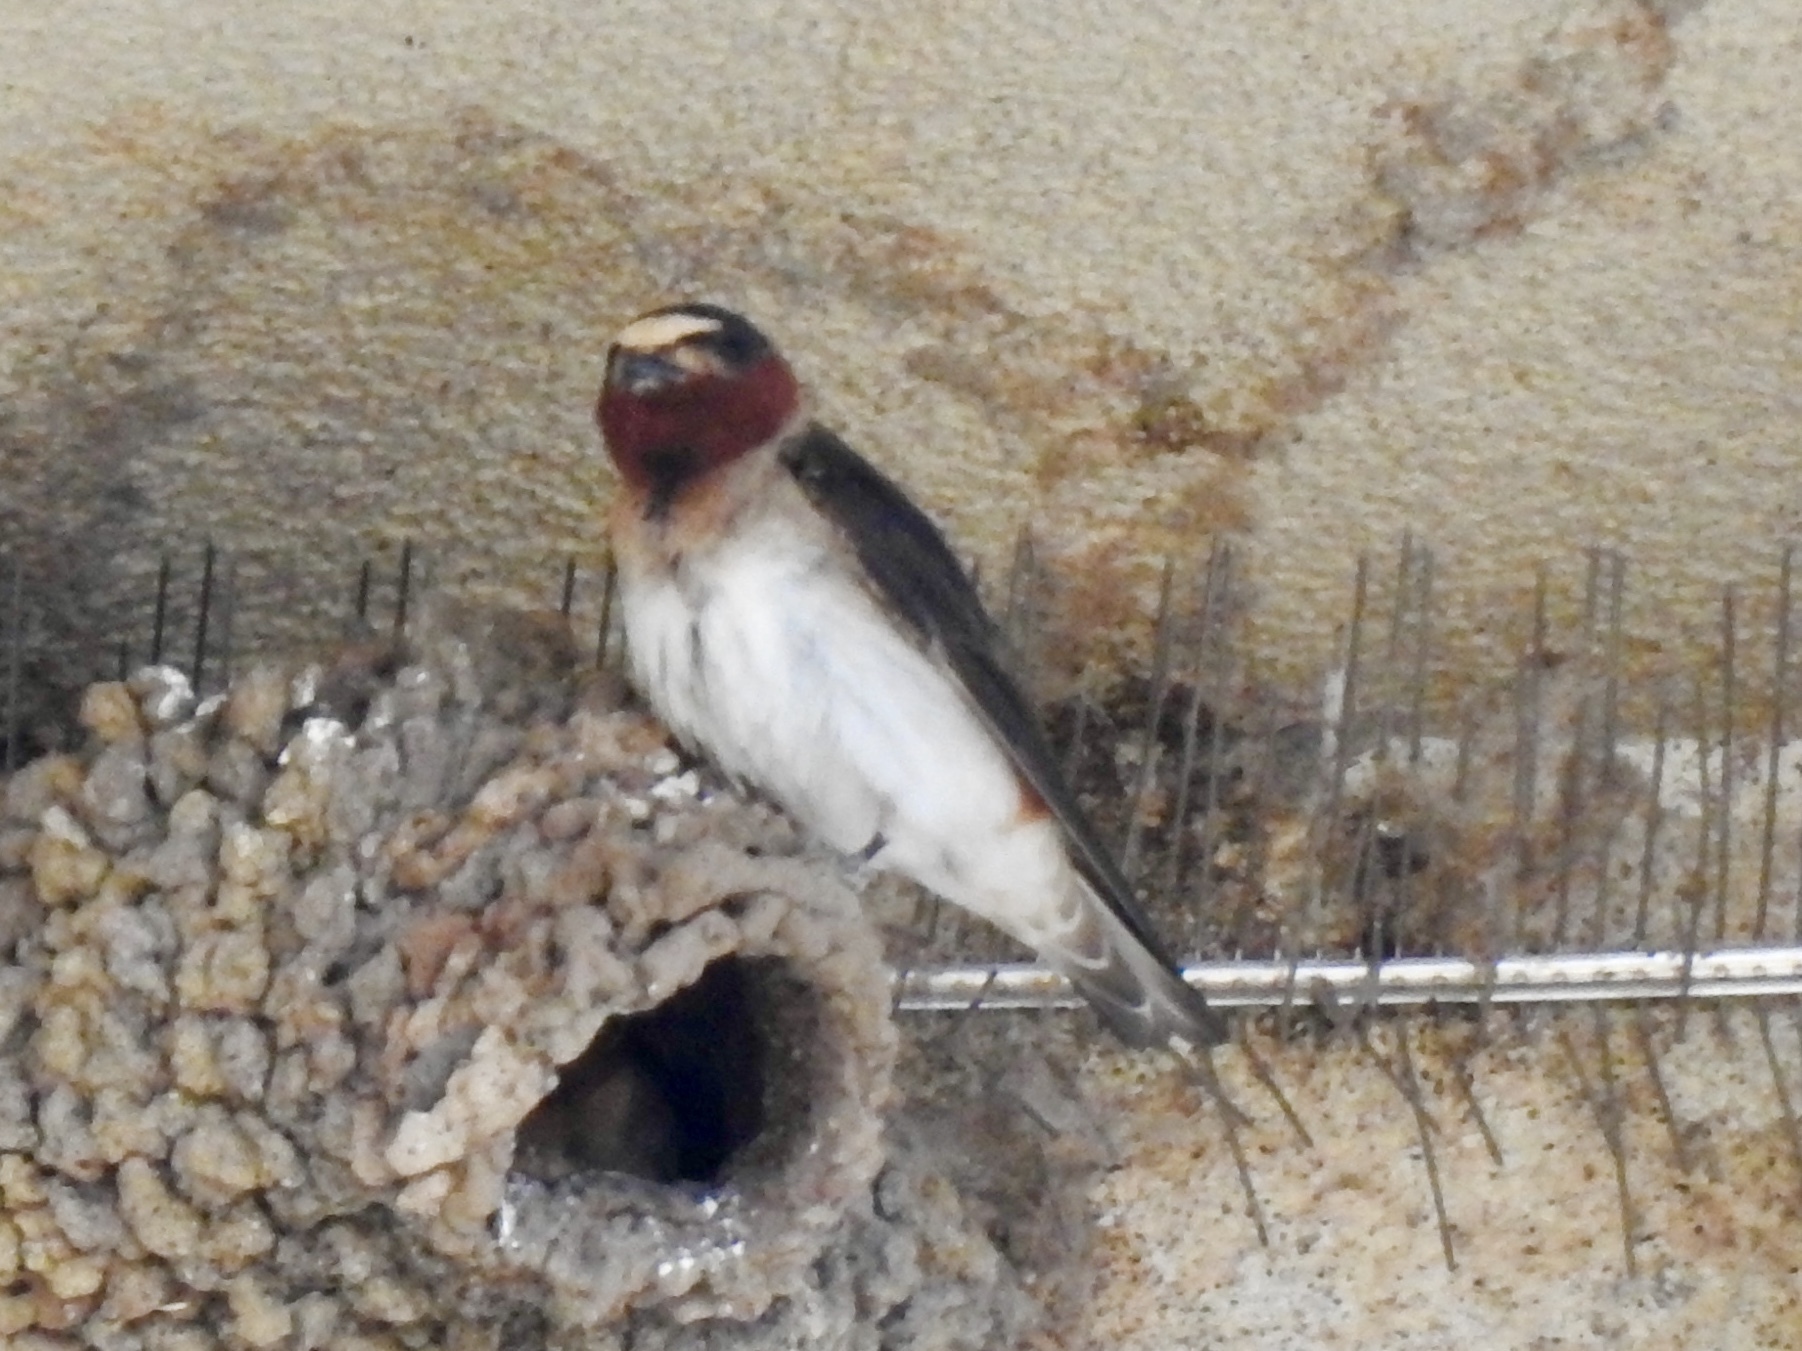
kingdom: Animalia
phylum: Chordata
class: Aves
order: Passeriformes
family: Hirundinidae
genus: Petrochelidon
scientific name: Petrochelidon pyrrhonota
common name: American cliff swallow
